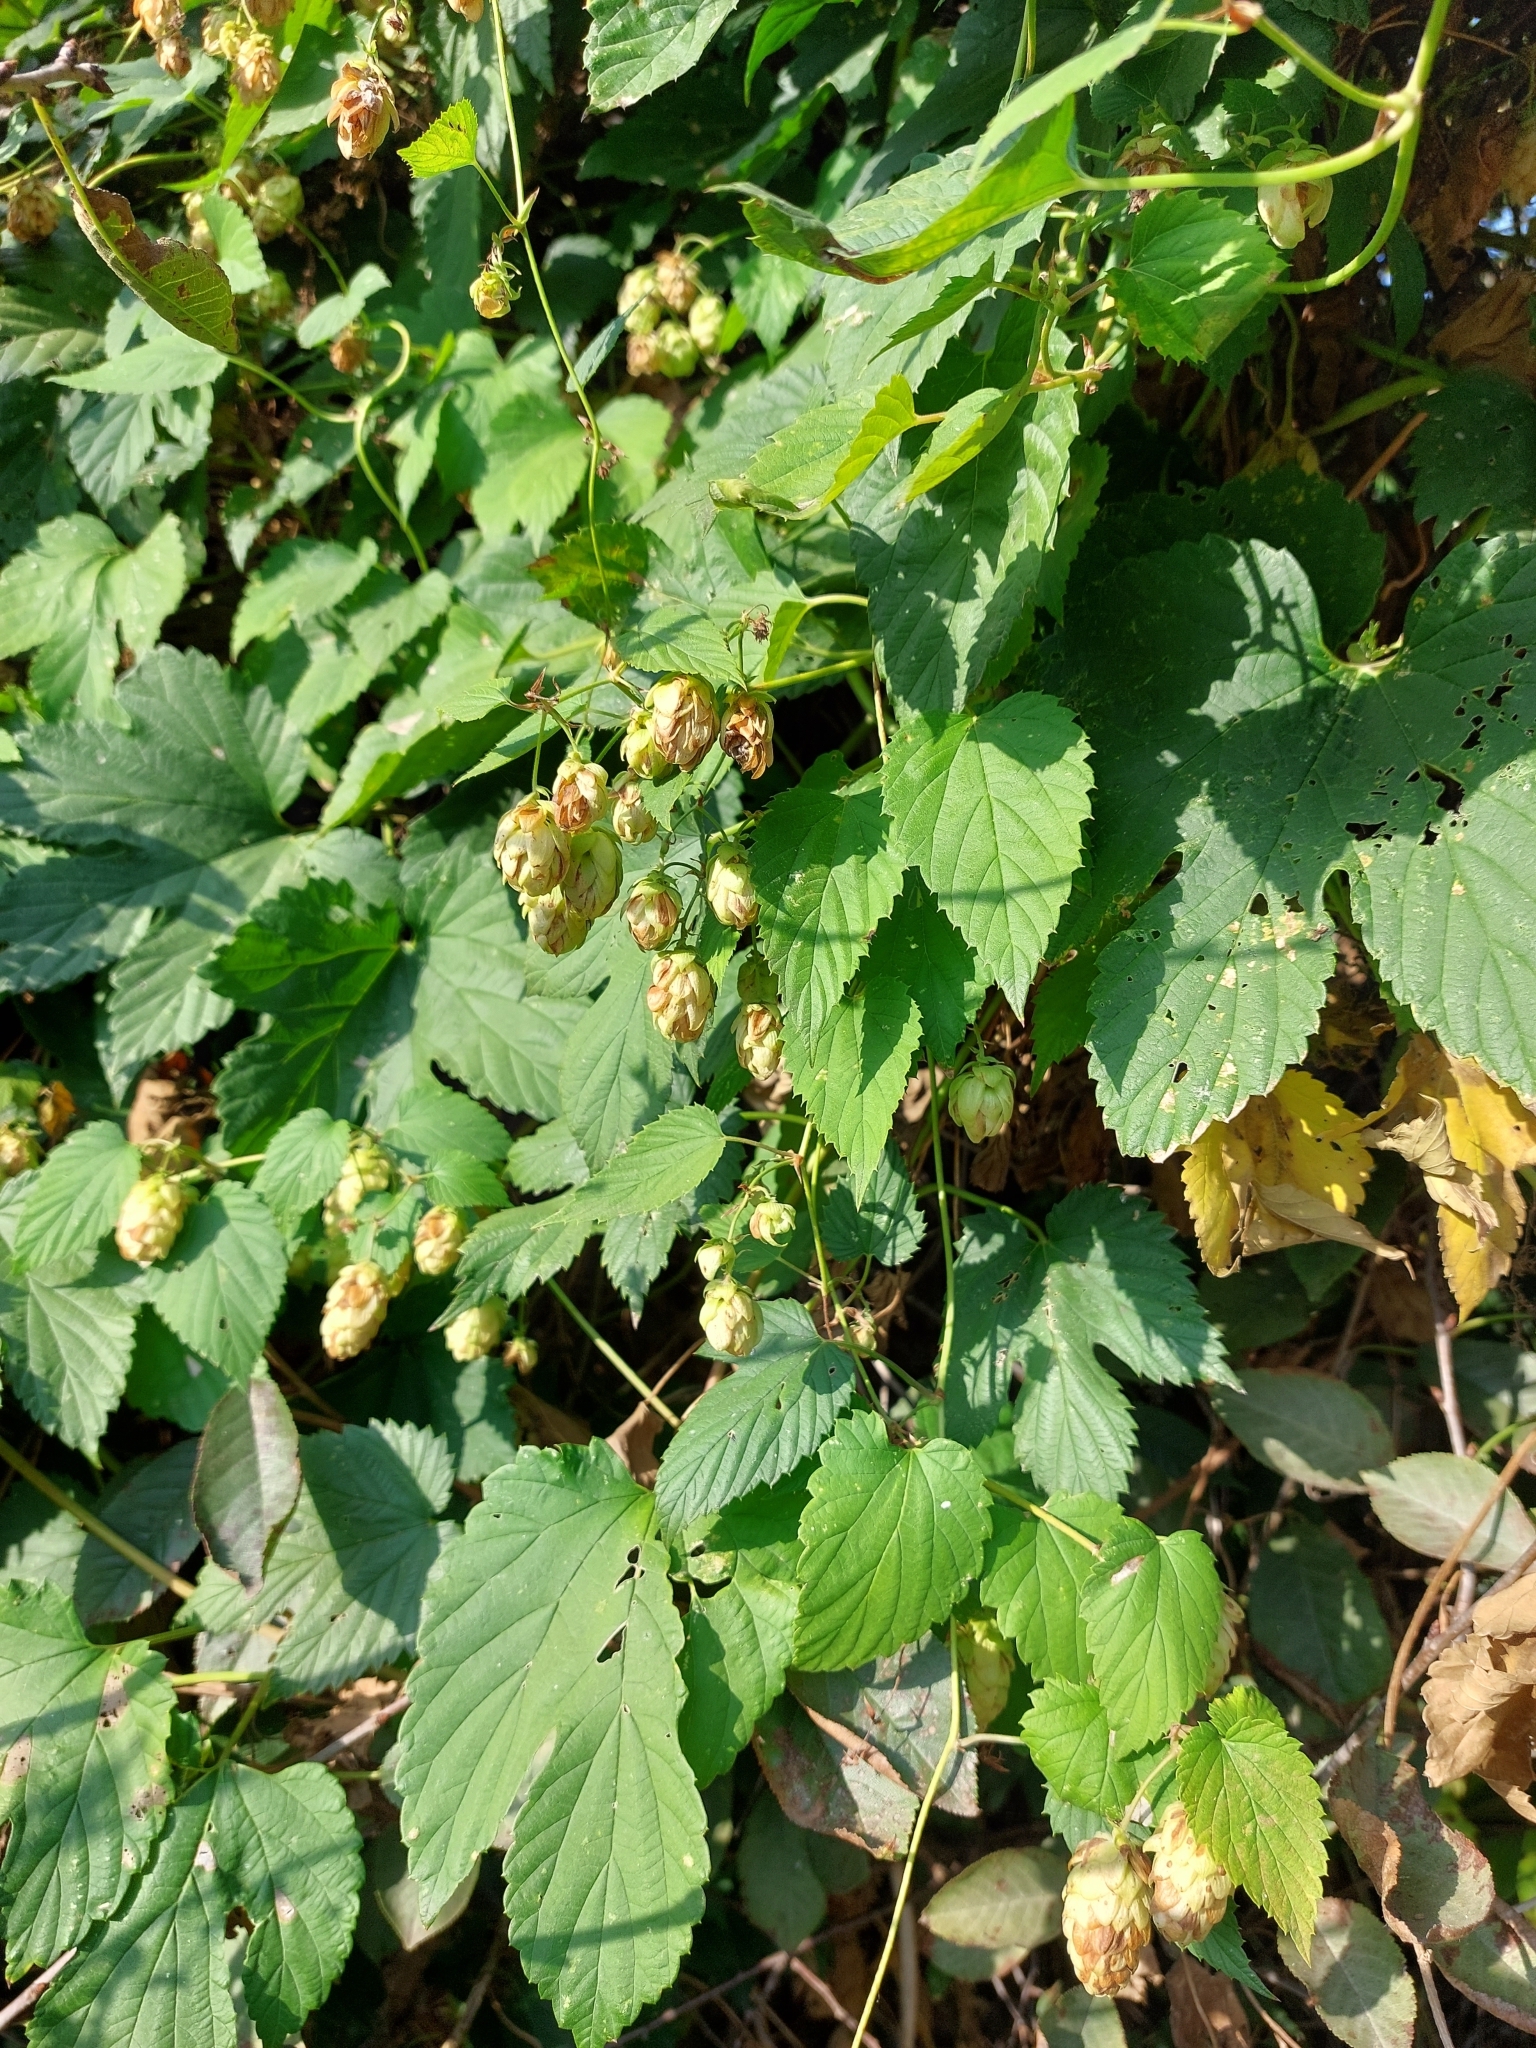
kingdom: Plantae
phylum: Tracheophyta
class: Magnoliopsida
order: Rosales
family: Cannabaceae
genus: Humulus
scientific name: Humulus lupulus
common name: Hop
